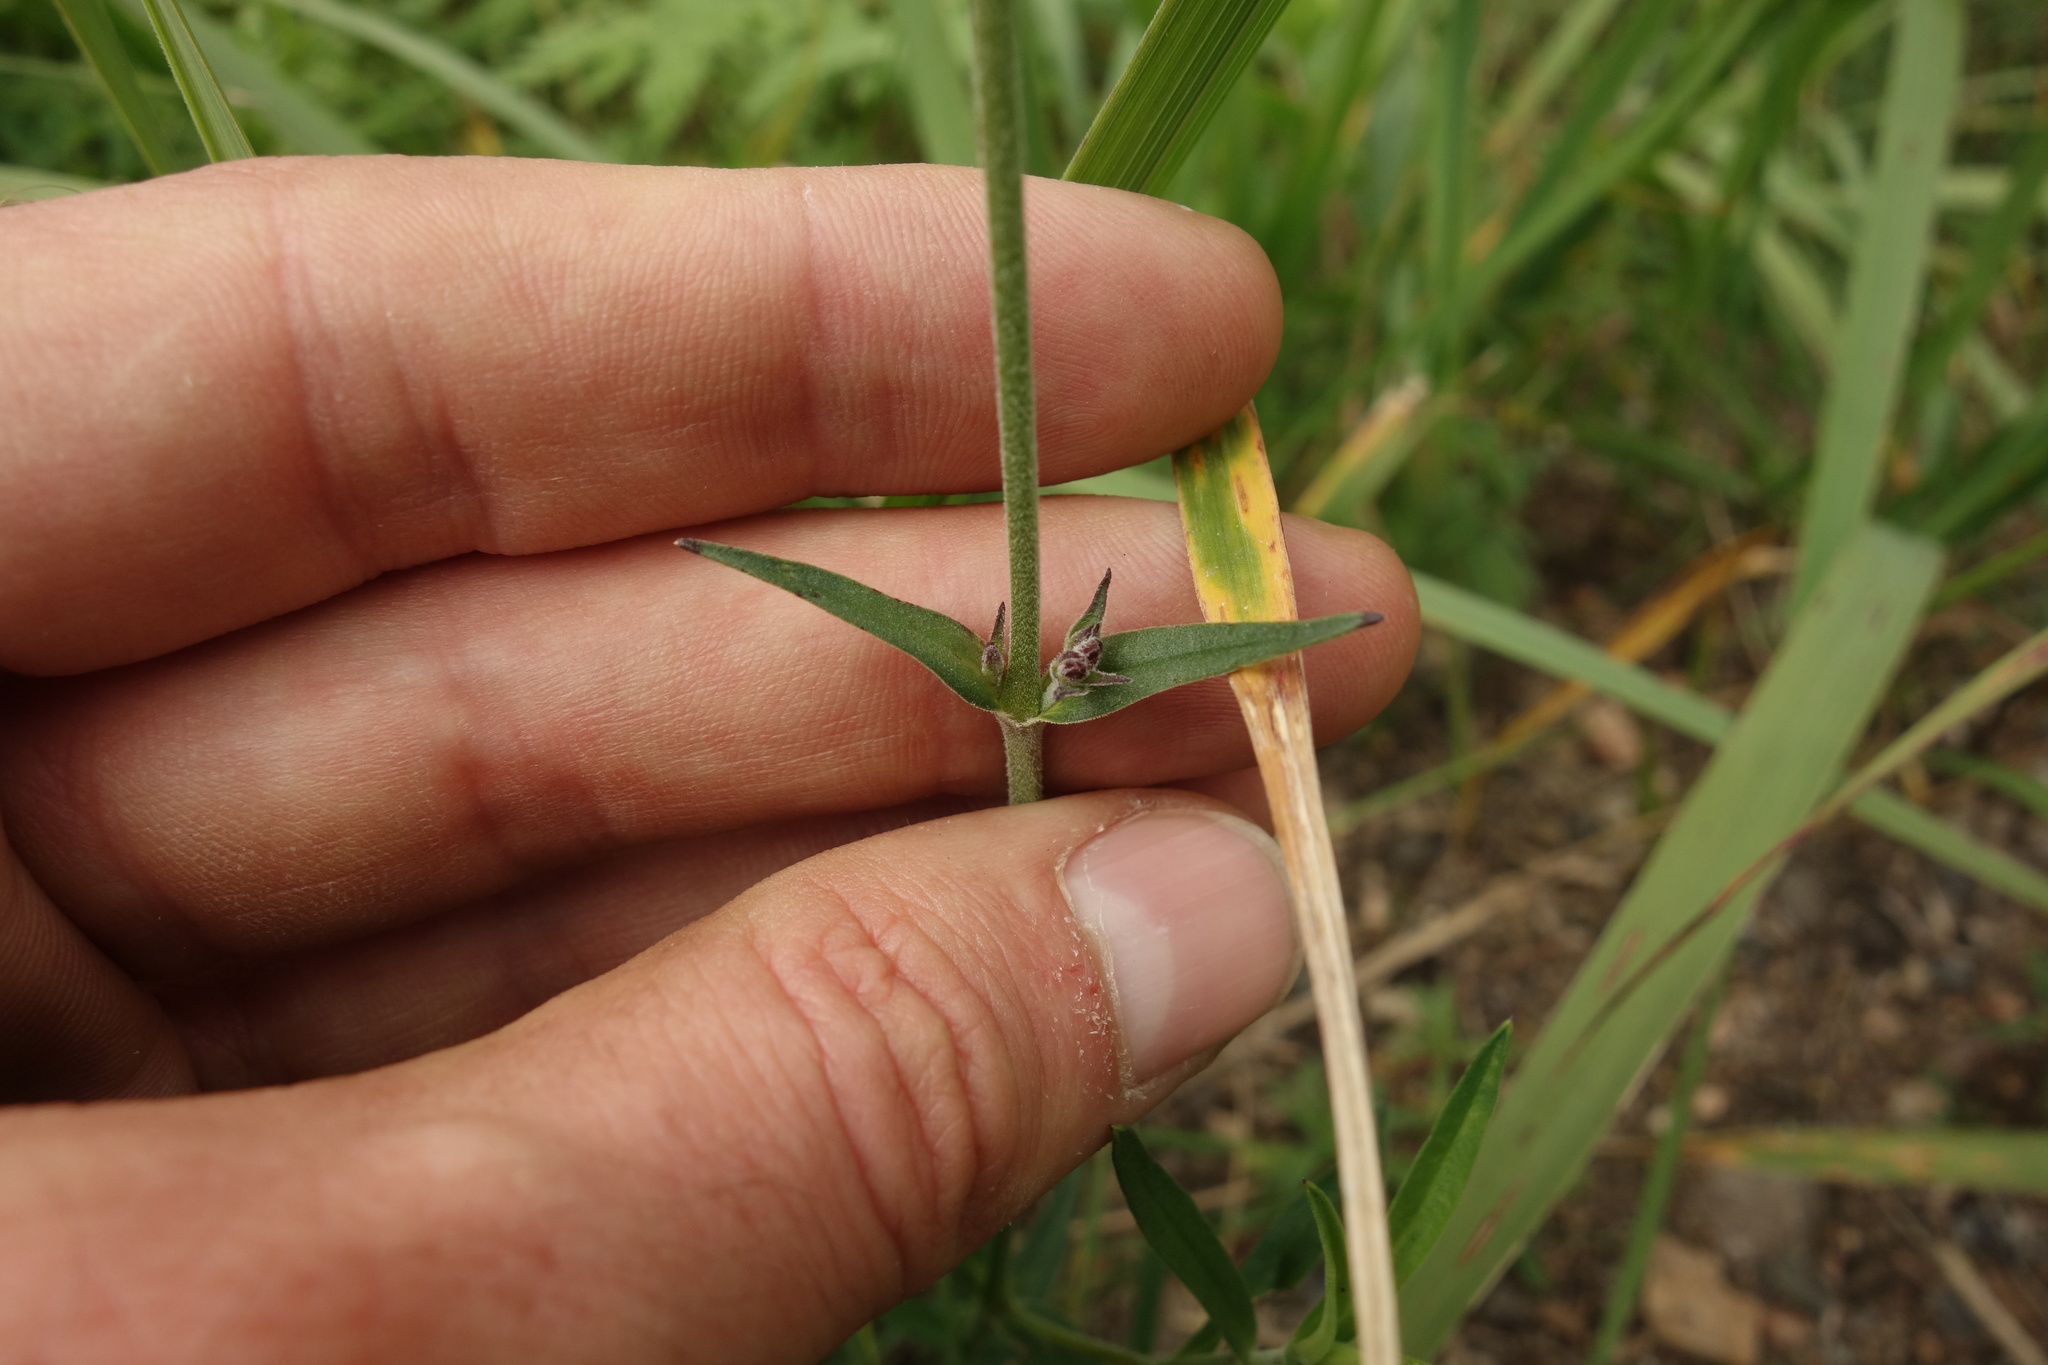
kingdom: Plantae
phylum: Tracheophyta
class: Magnoliopsida
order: Caryophyllales
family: Caryophyllaceae
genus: Silene
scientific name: Silene amoena
